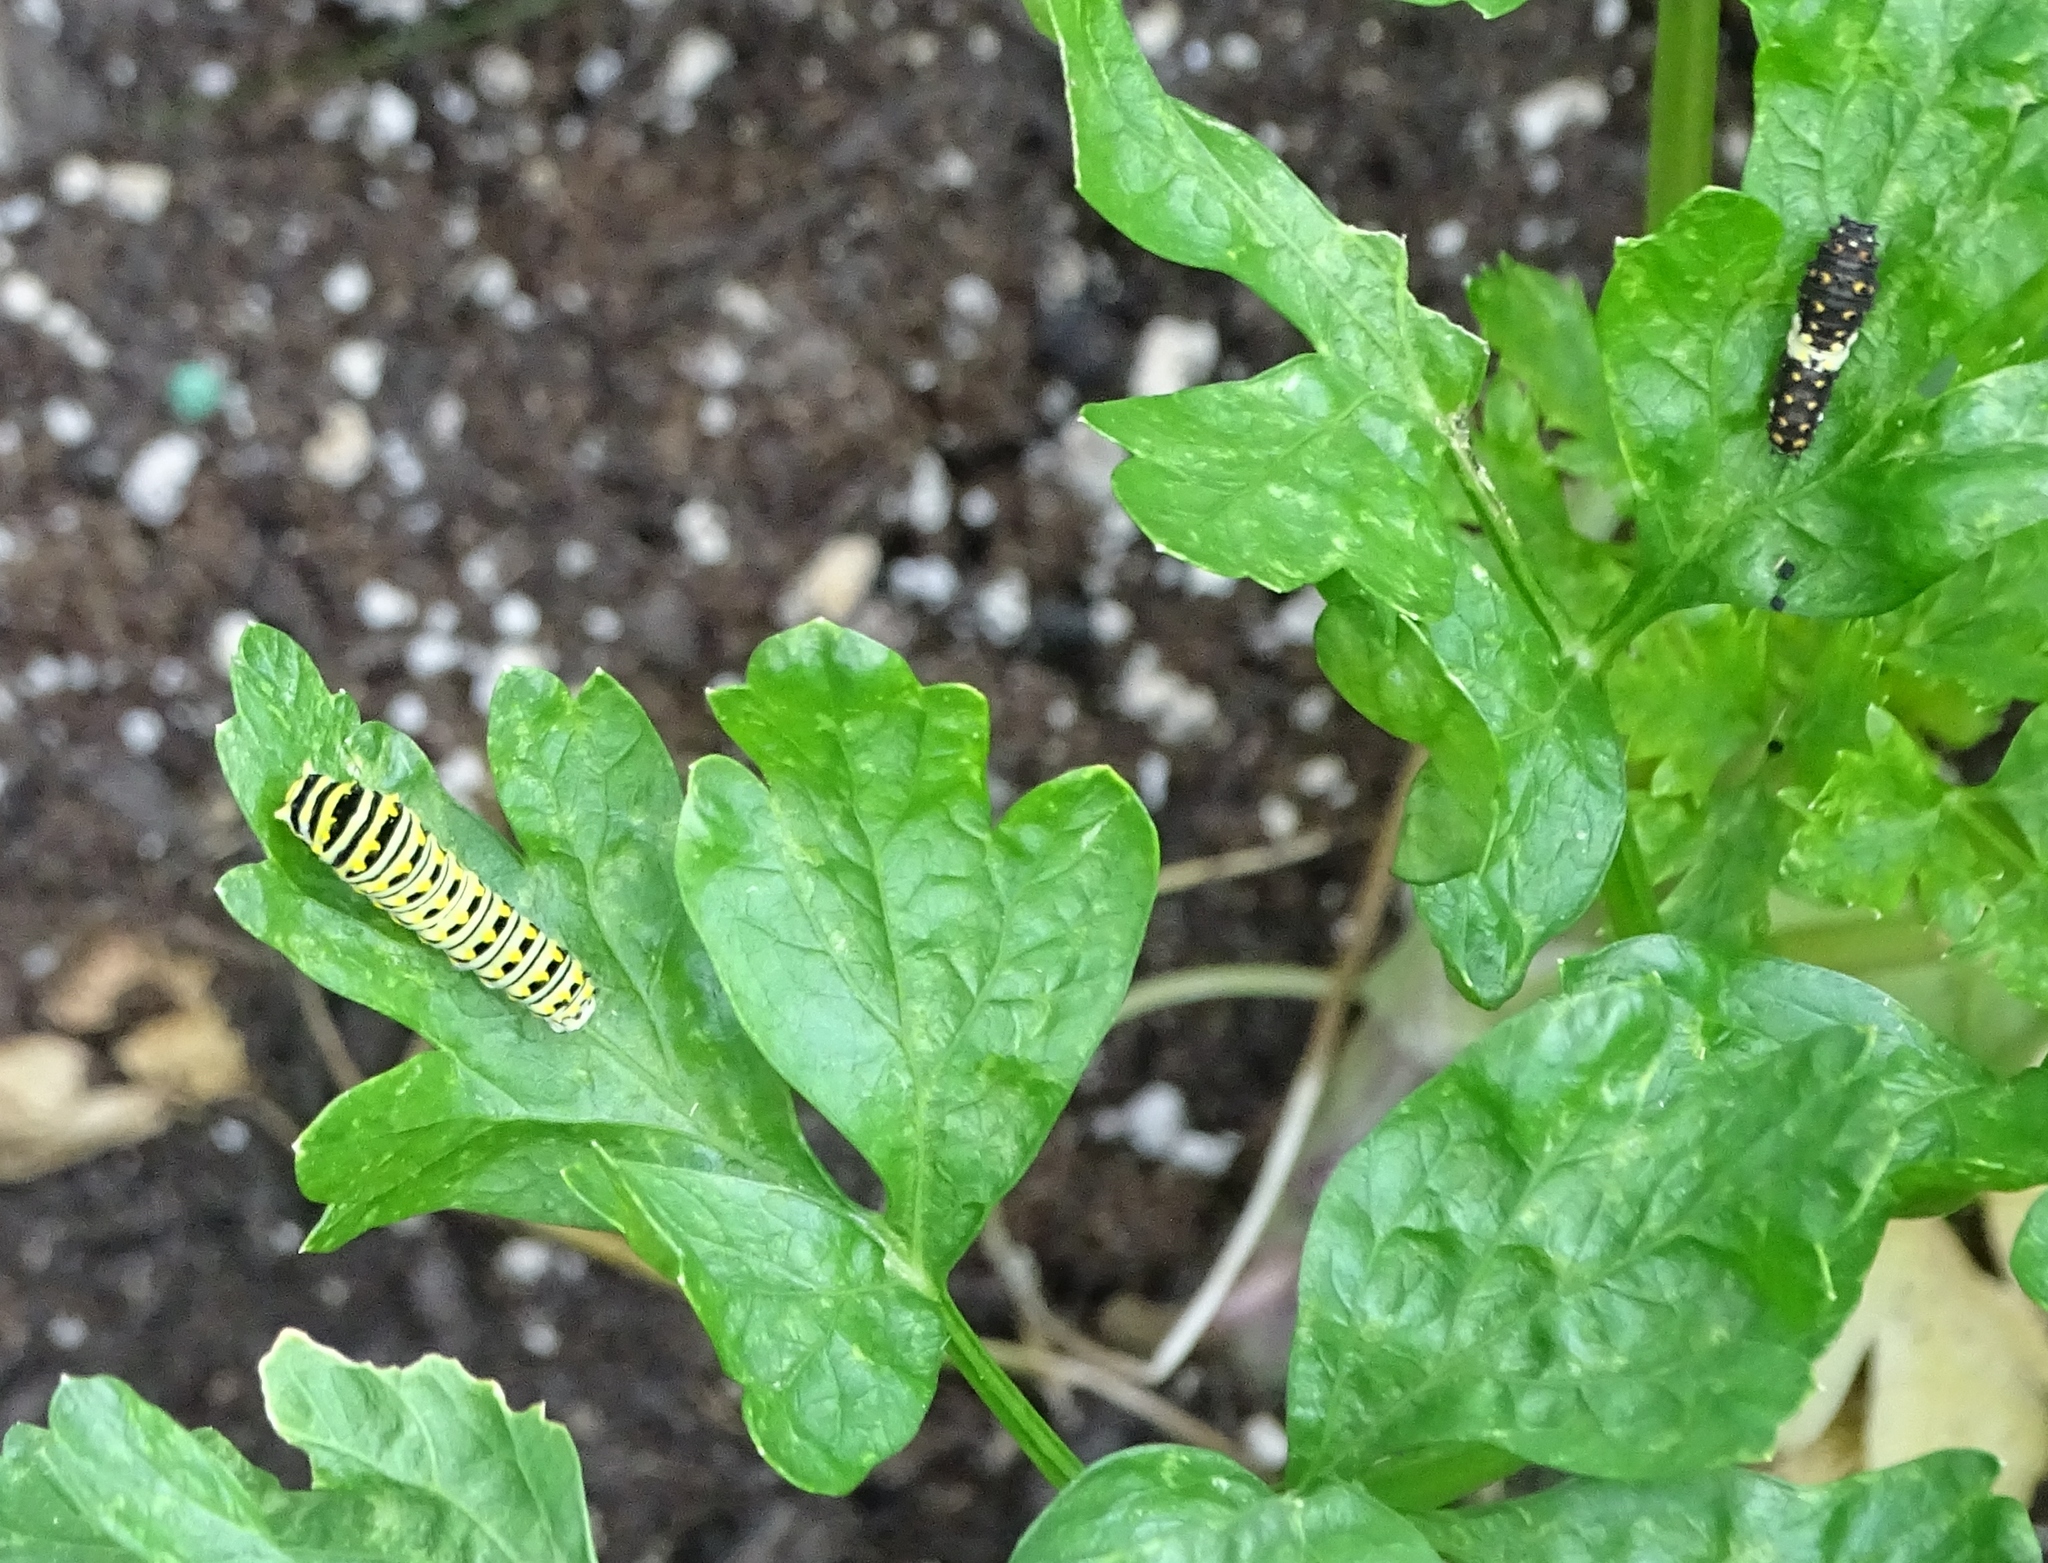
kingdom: Animalia
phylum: Arthropoda
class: Insecta
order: Lepidoptera
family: Papilionidae
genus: Papilio
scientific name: Papilio polyxenes
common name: Black swallowtail
